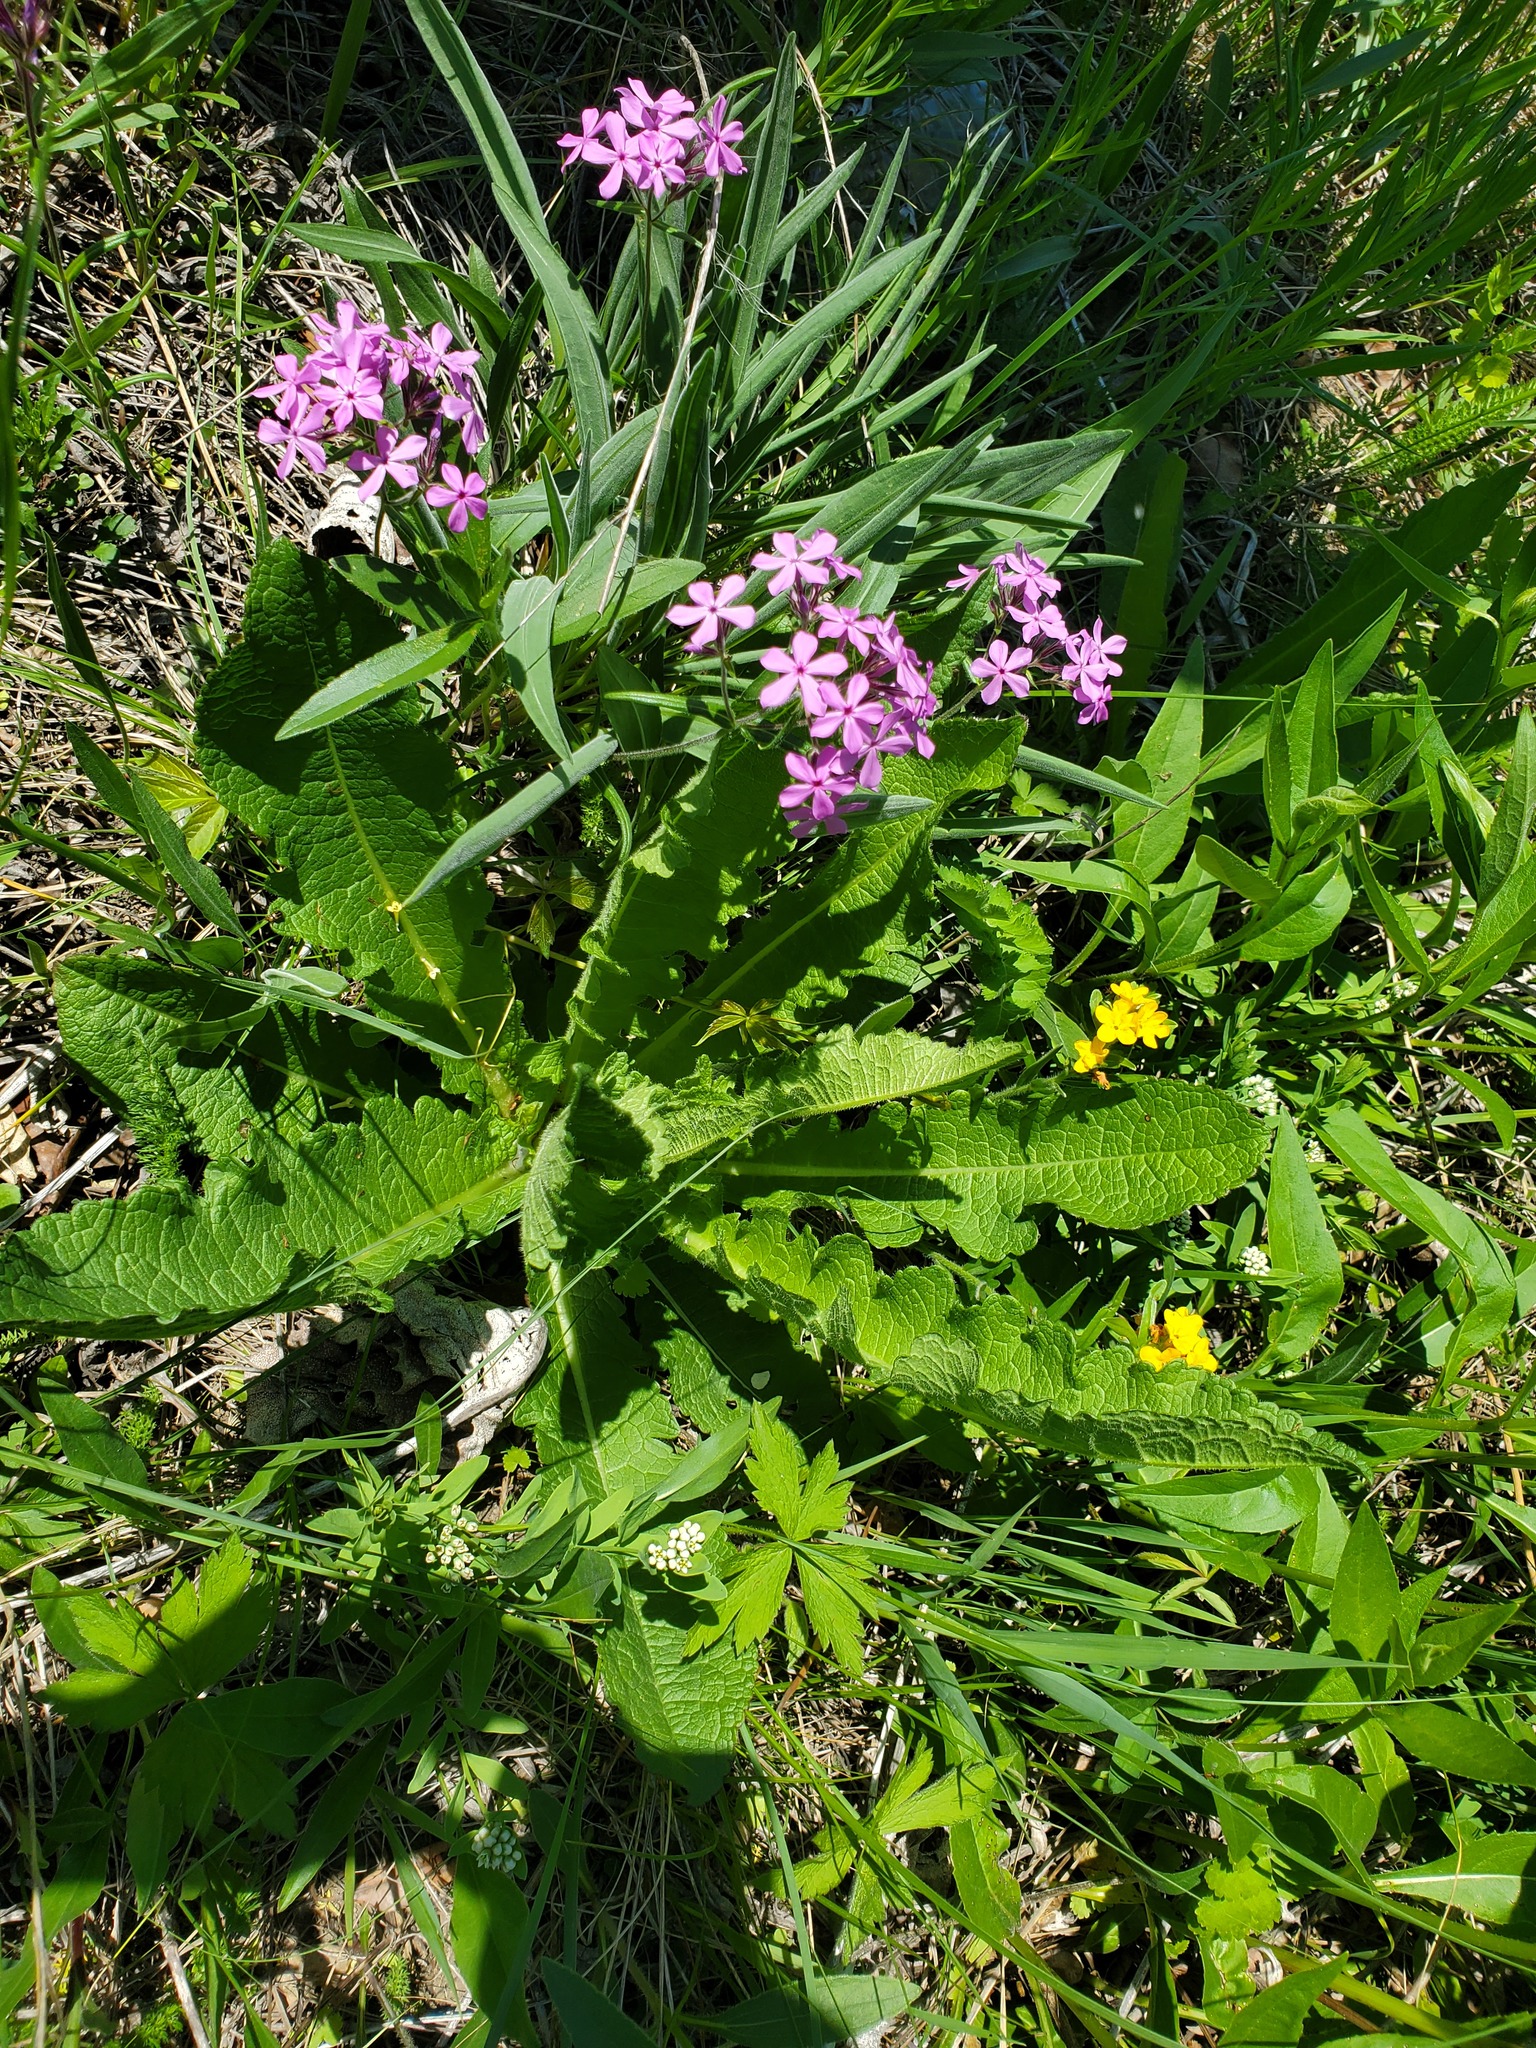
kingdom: Plantae
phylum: Tracheophyta
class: Magnoliopsida
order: Ericales
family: Polemoniaceae
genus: Phlox
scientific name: Phlox pilosa
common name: Prairie phlox
